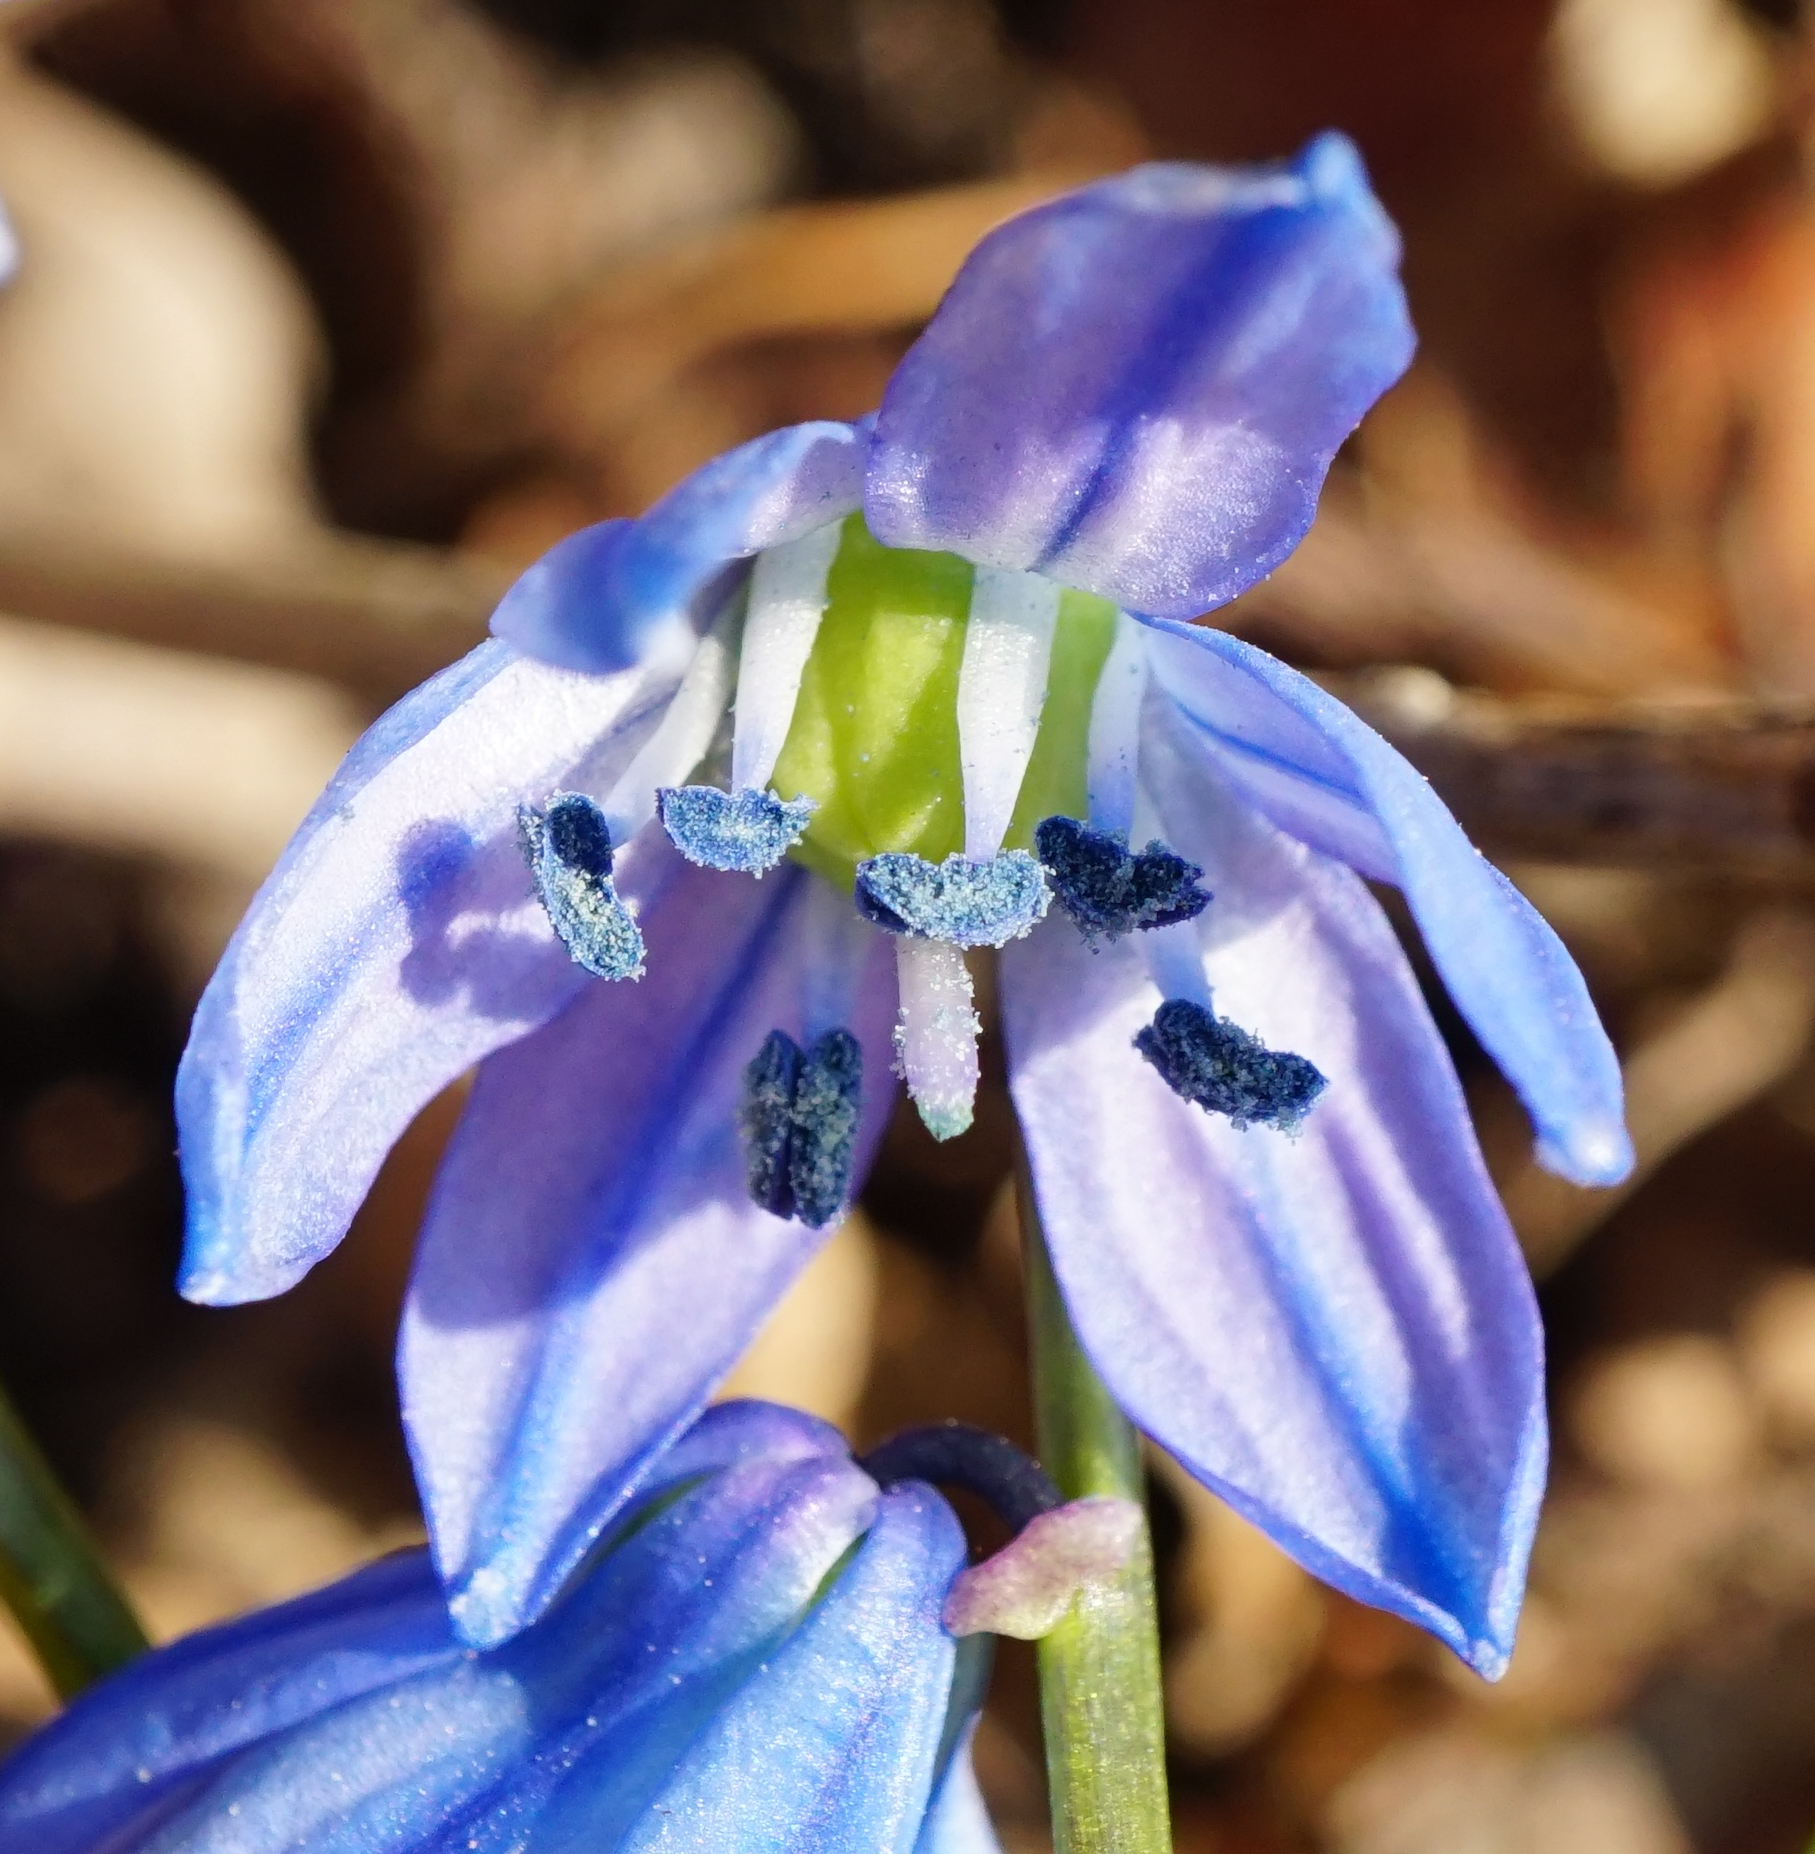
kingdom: Plantae
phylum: Tracheophyta
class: Liliopsida
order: Asparagales
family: Asparagaceae
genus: Scilla
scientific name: Scilla siberica
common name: Siberian squill
